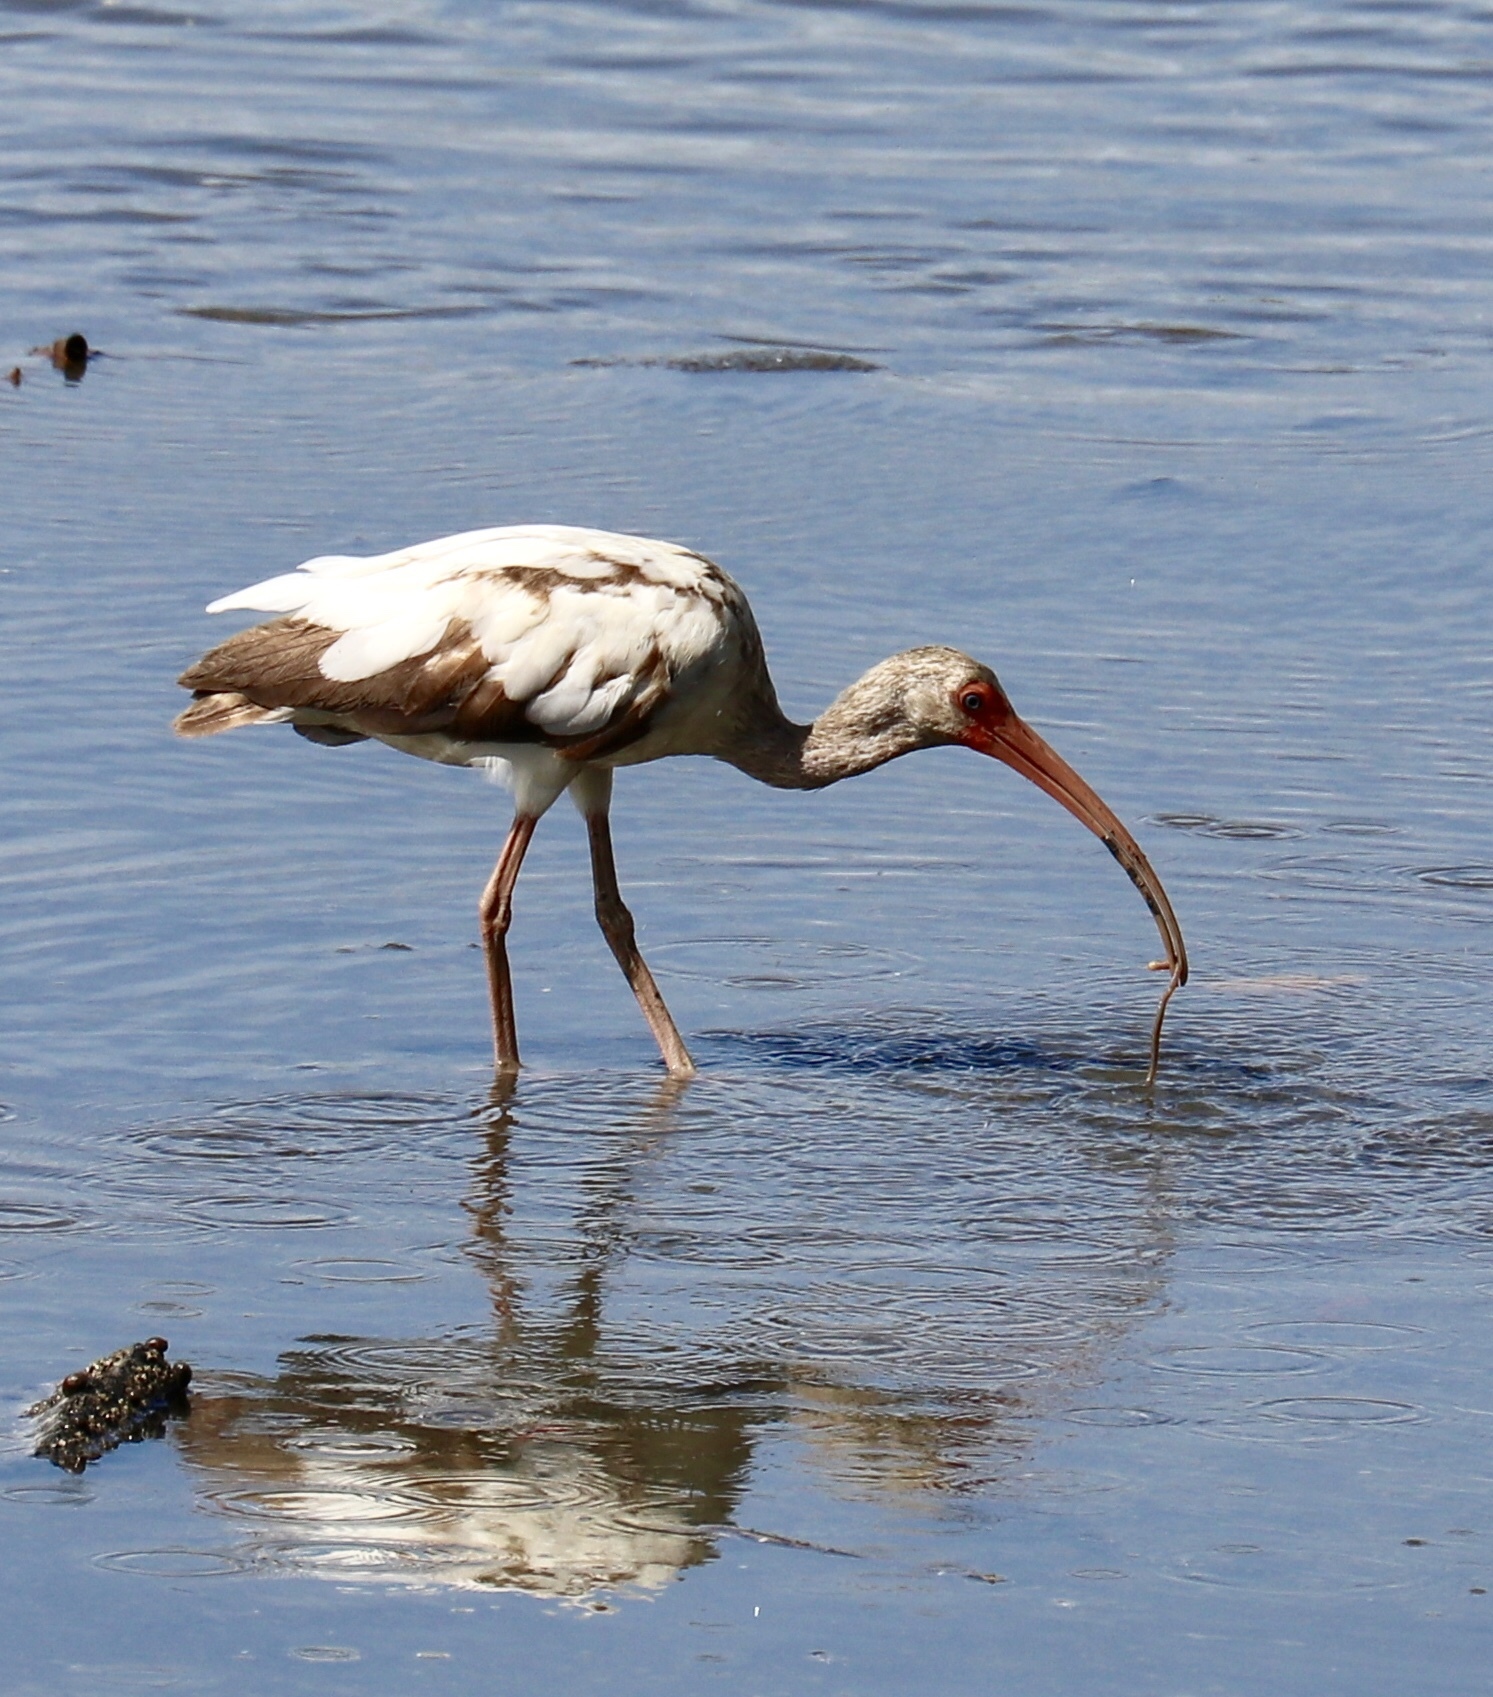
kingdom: Animalia
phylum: Chordata
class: Aves
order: Pelecaniformes
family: Threskiornithidae
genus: Eudocimus
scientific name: Eudocimus albus
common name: White ibis
